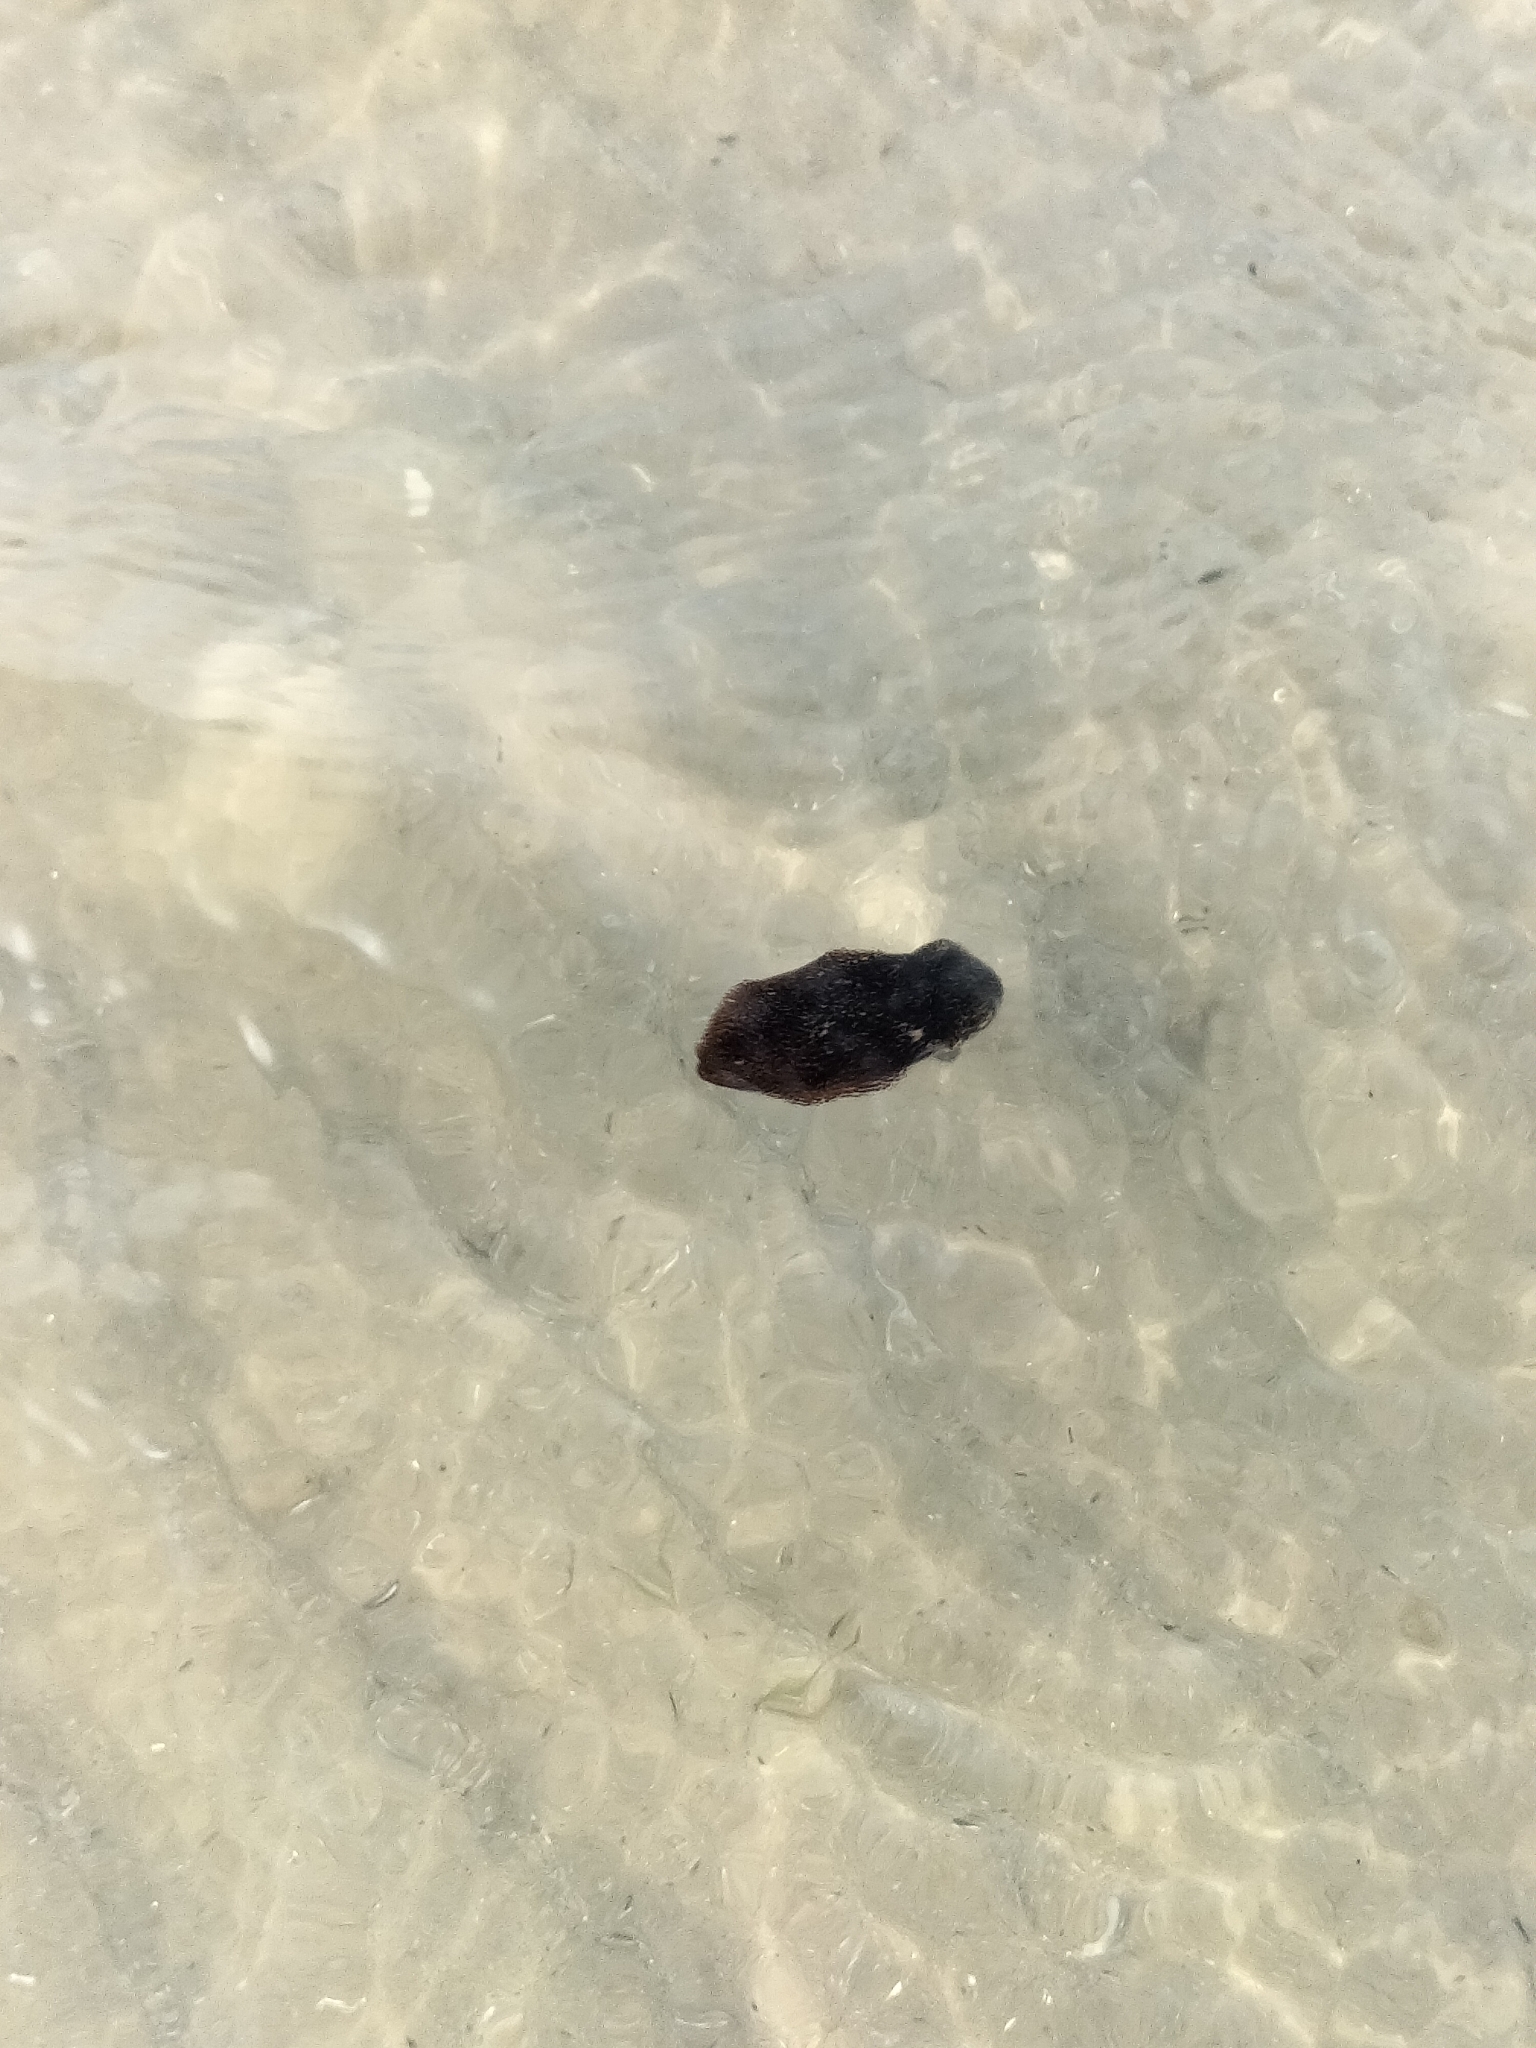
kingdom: Animalia
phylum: Mollusca
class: Cephalopoda
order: Myopsida
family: Loliginidae
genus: Sepioteuthis
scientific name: Sepioteuthis lessoniana
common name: Bigfin reef squid
